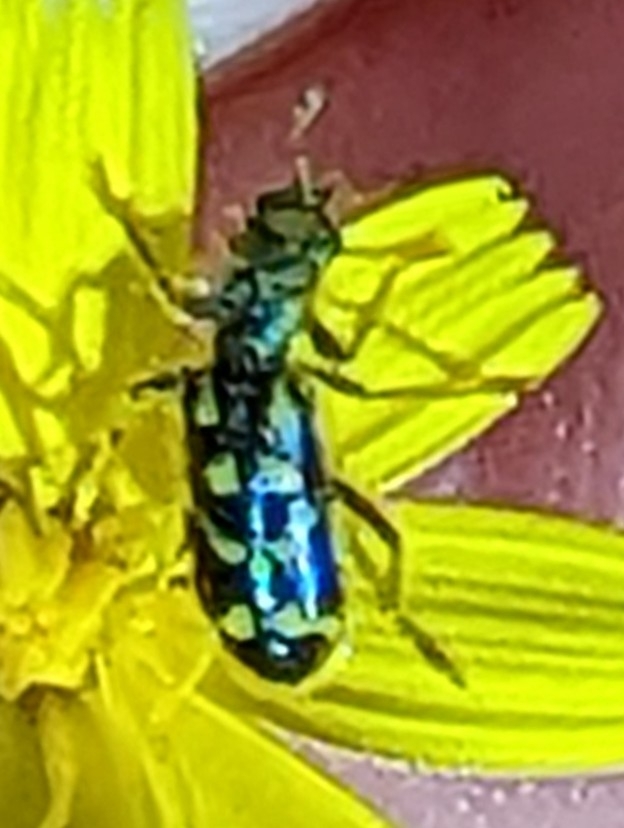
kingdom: Animalia
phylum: Arthropoda
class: Insecta
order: Coleoptera
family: Cleridae
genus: Trichodes
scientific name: Trichodes ornatus
